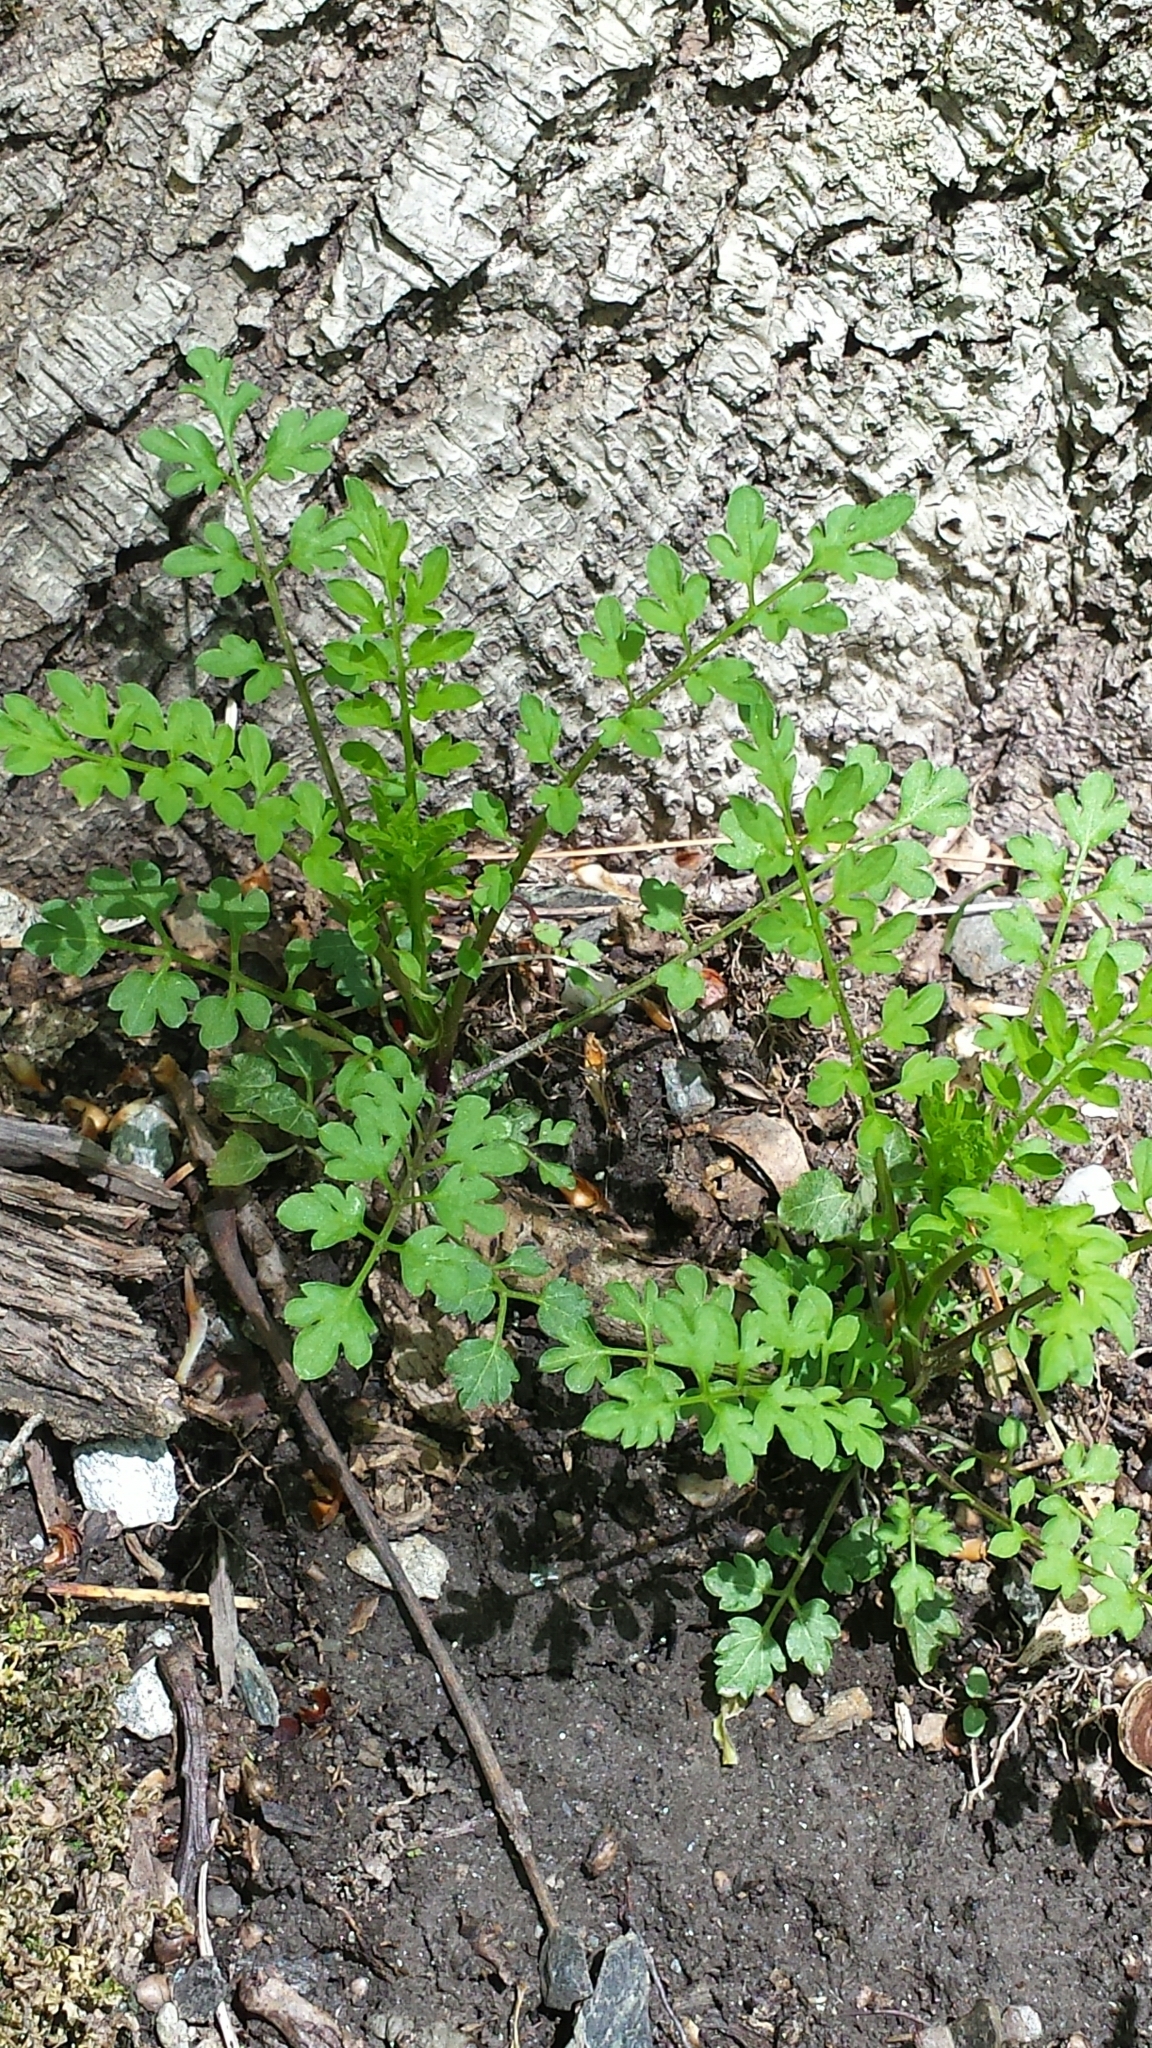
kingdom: Plantae
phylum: Tracheophyta
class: Magnoliopsida
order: Brassicales
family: Brassicaceae
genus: Cardamine
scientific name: Cardamine impatiens
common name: Narrow-leaved bitter-cress
